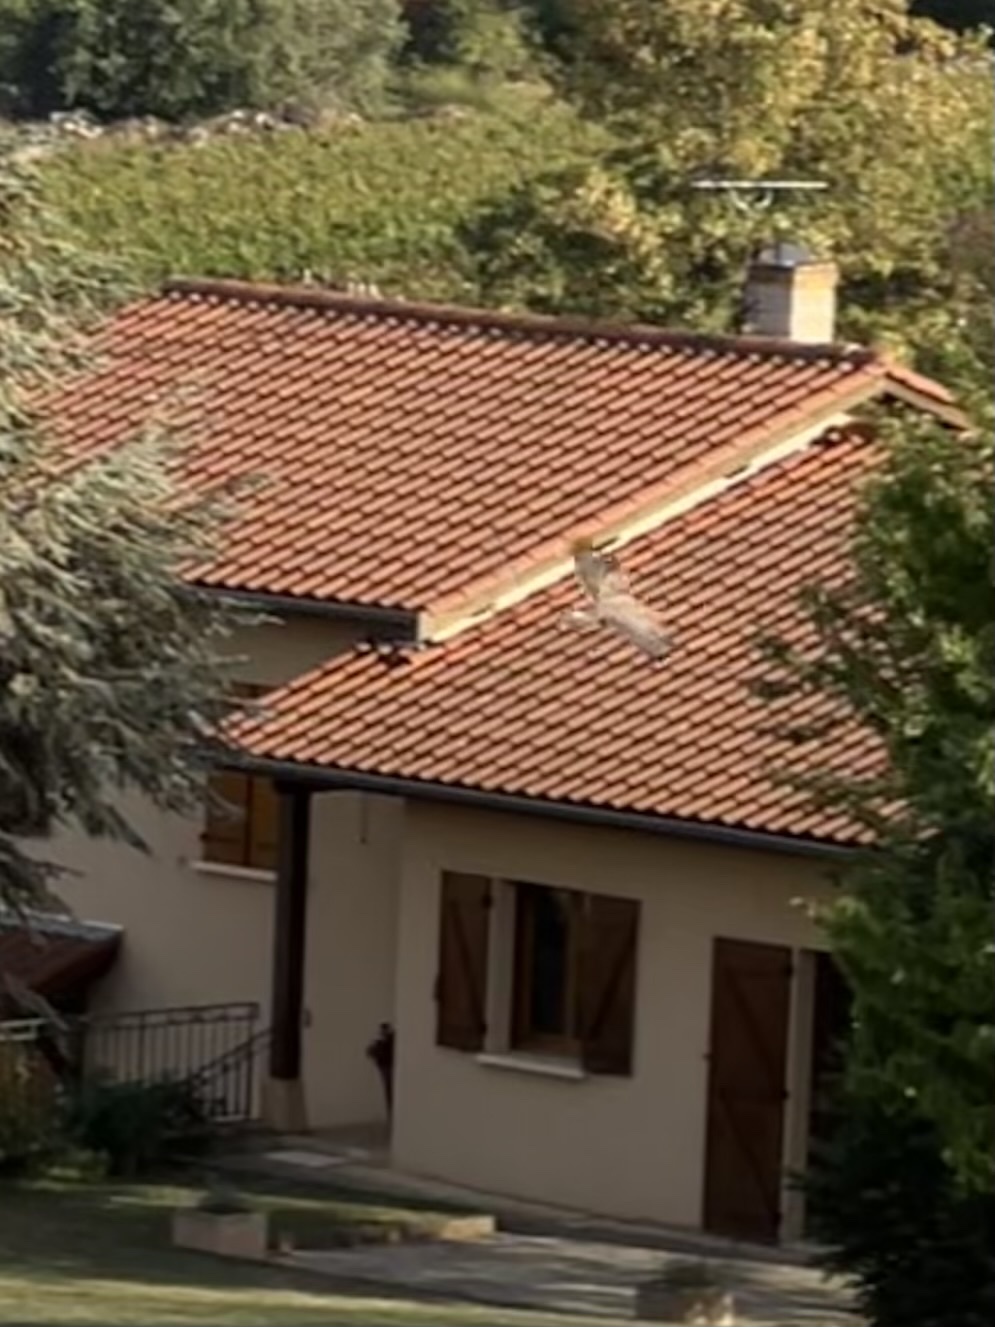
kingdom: Animalia
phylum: Chordata
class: Aves
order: Accipitriformes
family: Accipitridae
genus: Buteo
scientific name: Buteo buteo
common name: Common buzzard
